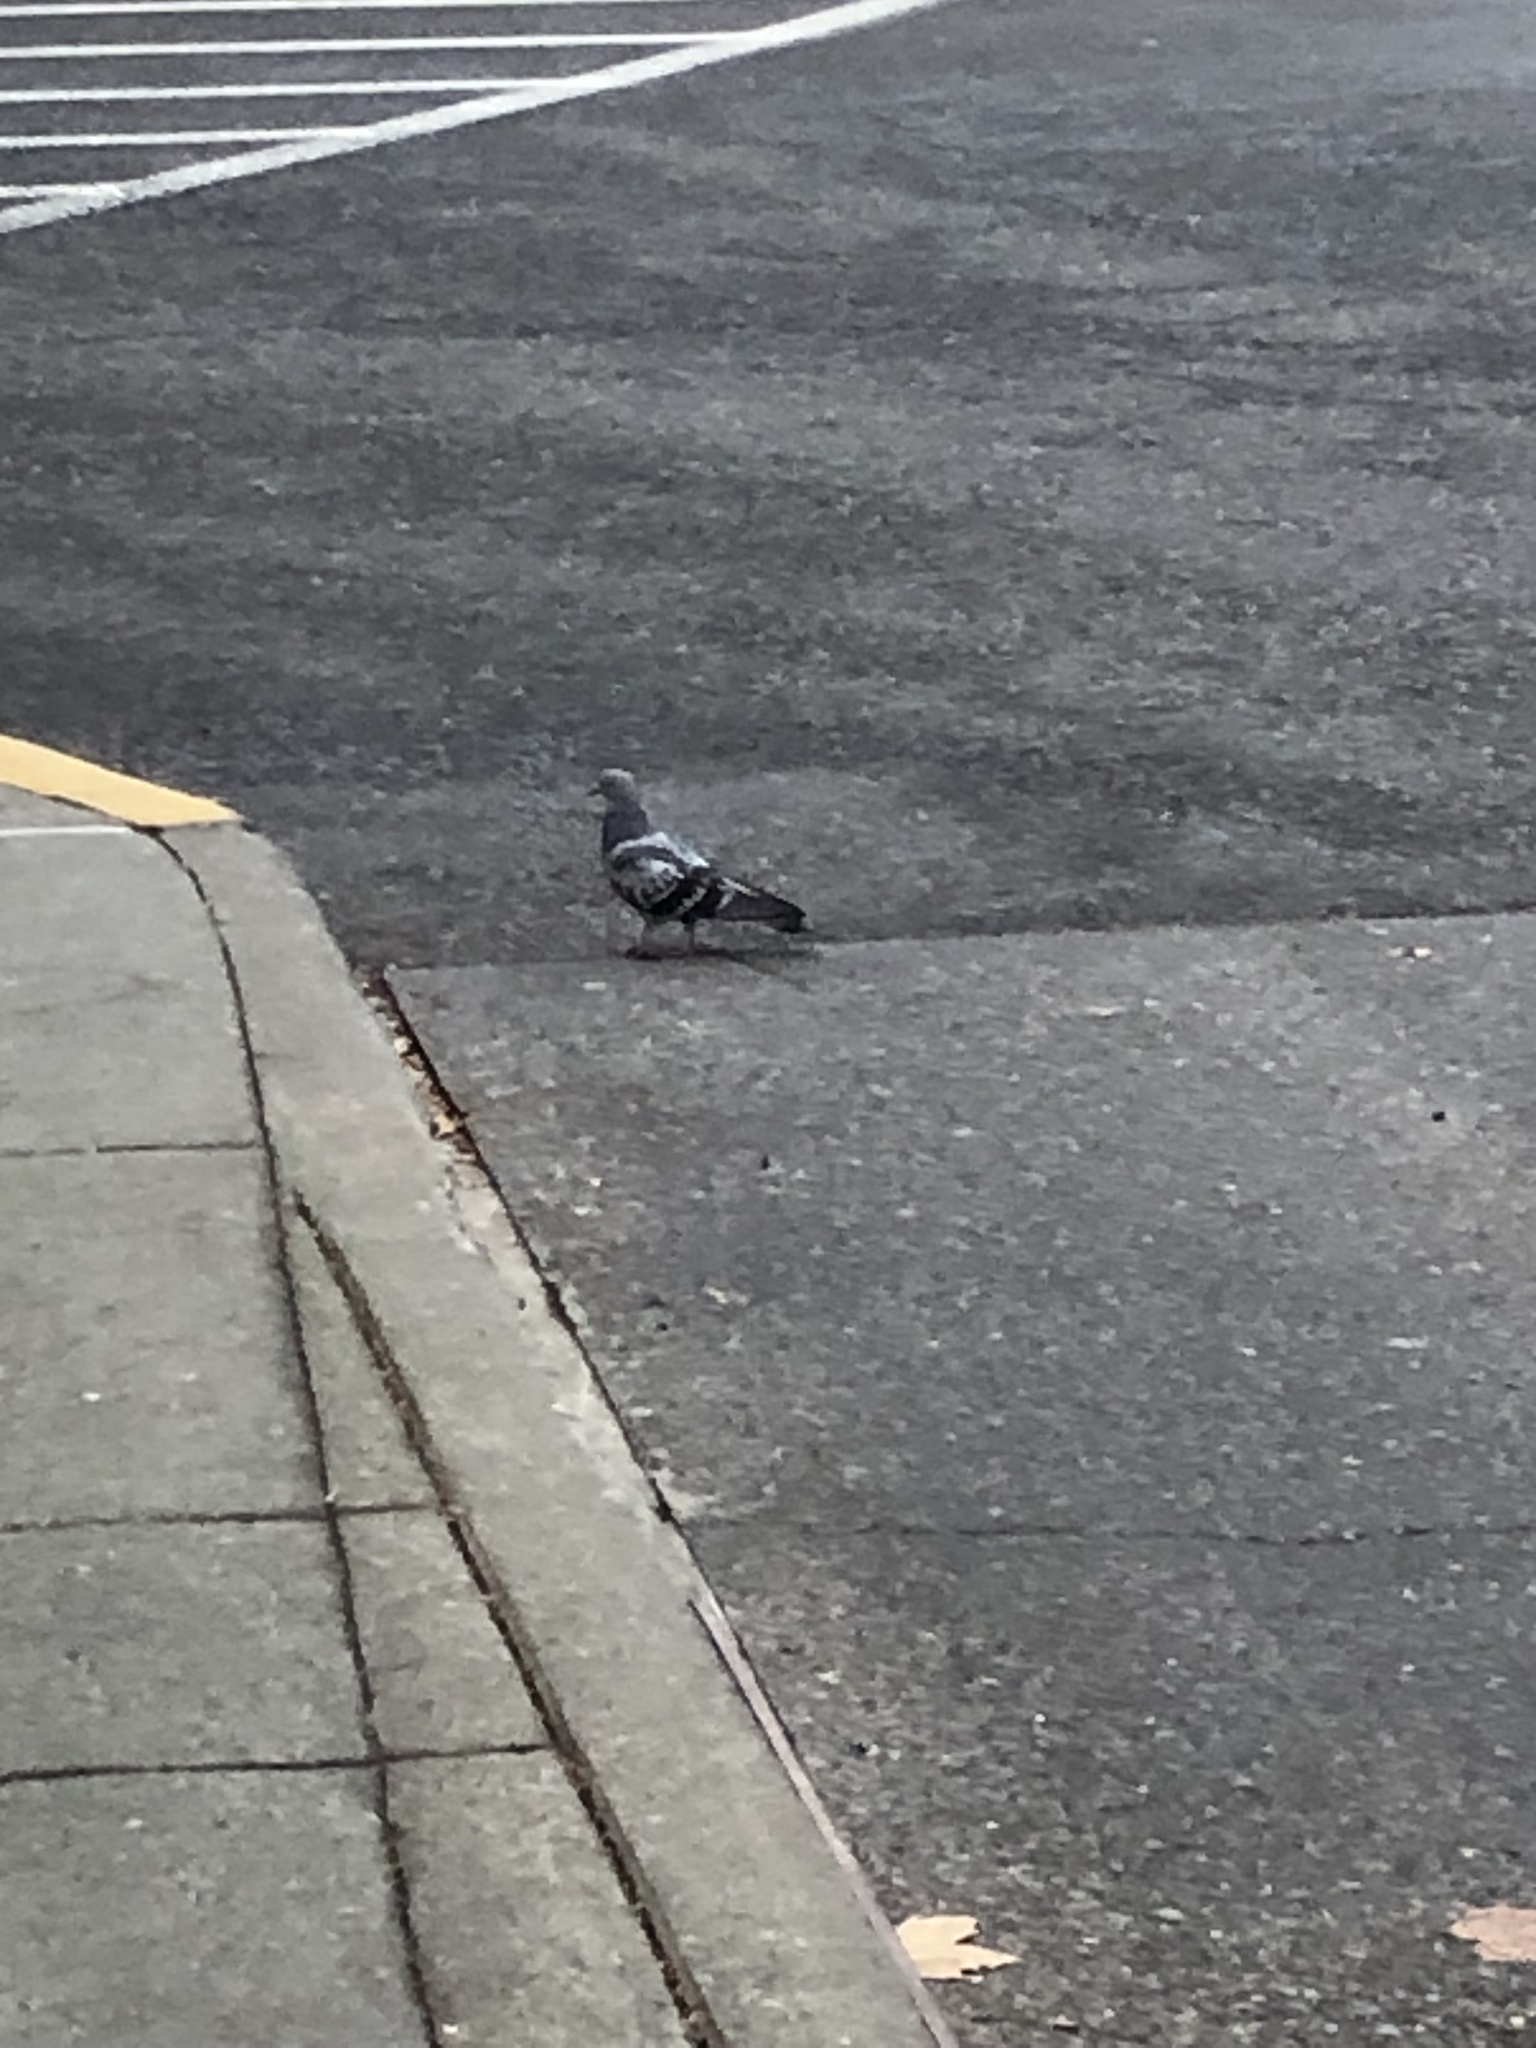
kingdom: Animalia
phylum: Chordata
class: Aves
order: Columbiformes
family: Columbidae
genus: Columba
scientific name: Columba livia
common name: Rock pigeon
